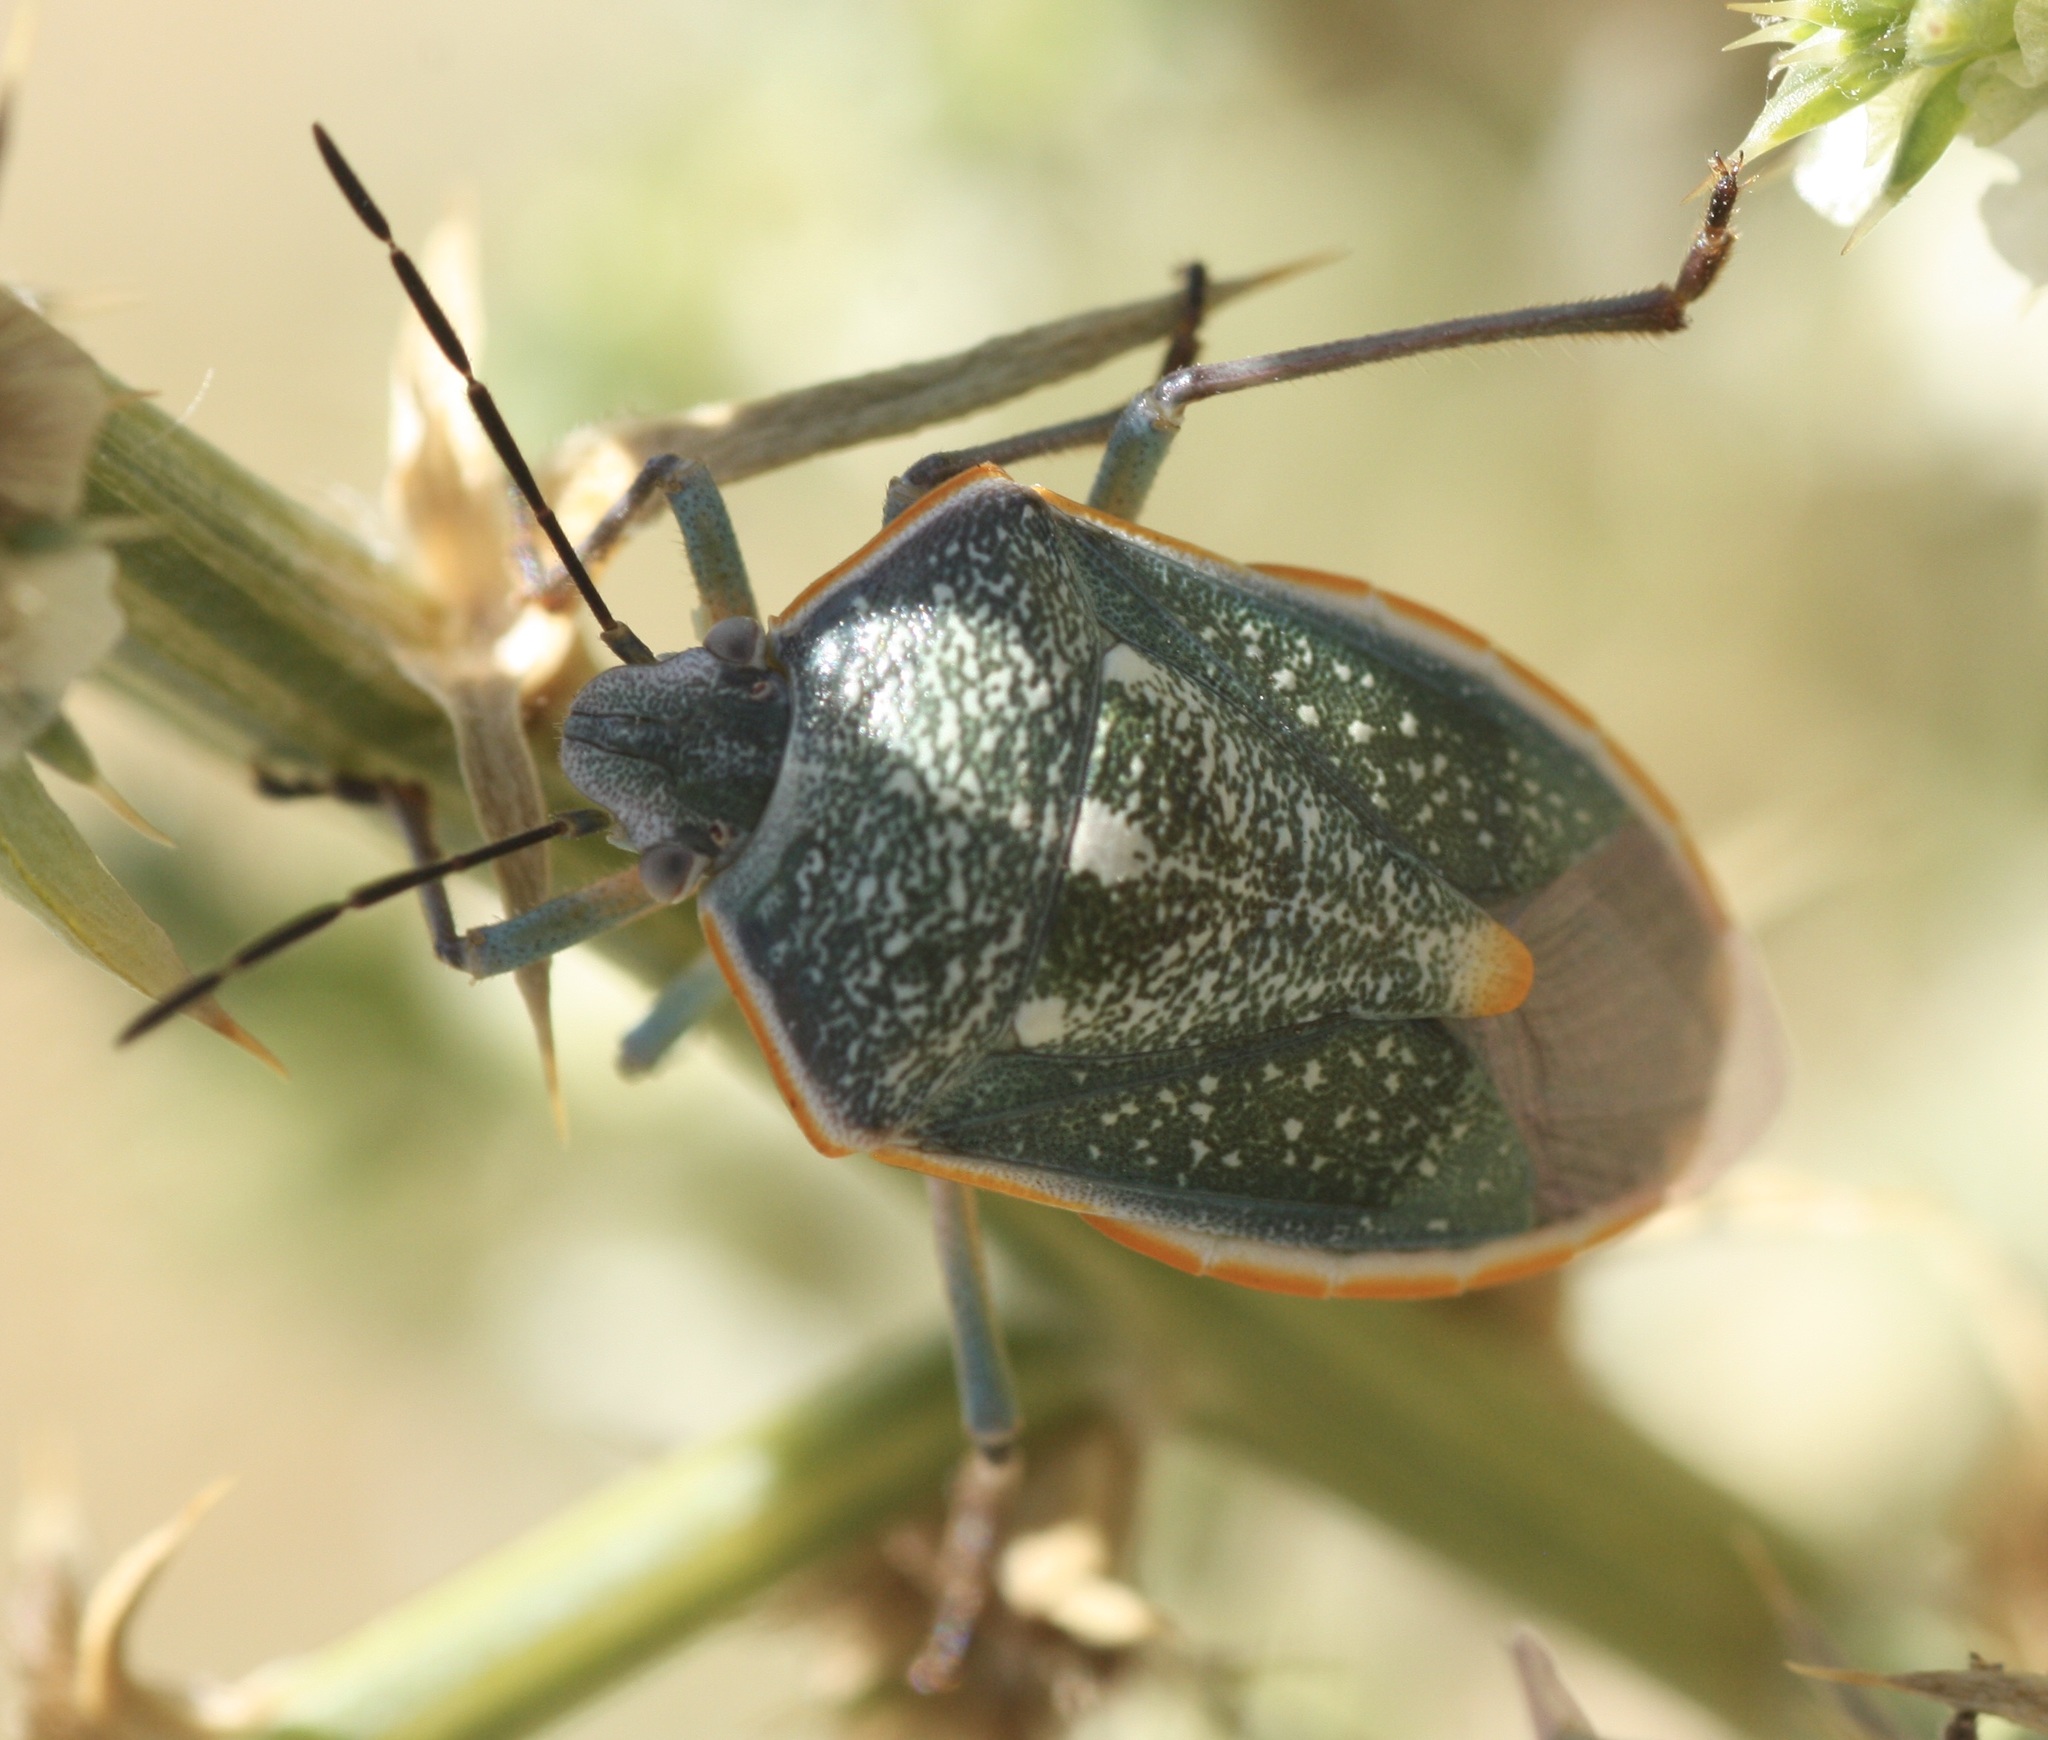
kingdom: Animalia
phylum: Arthropoda
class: Insecta
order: Hemiptera
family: Pentatomidae
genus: Chlorochroa
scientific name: Chlorochroa sayi
